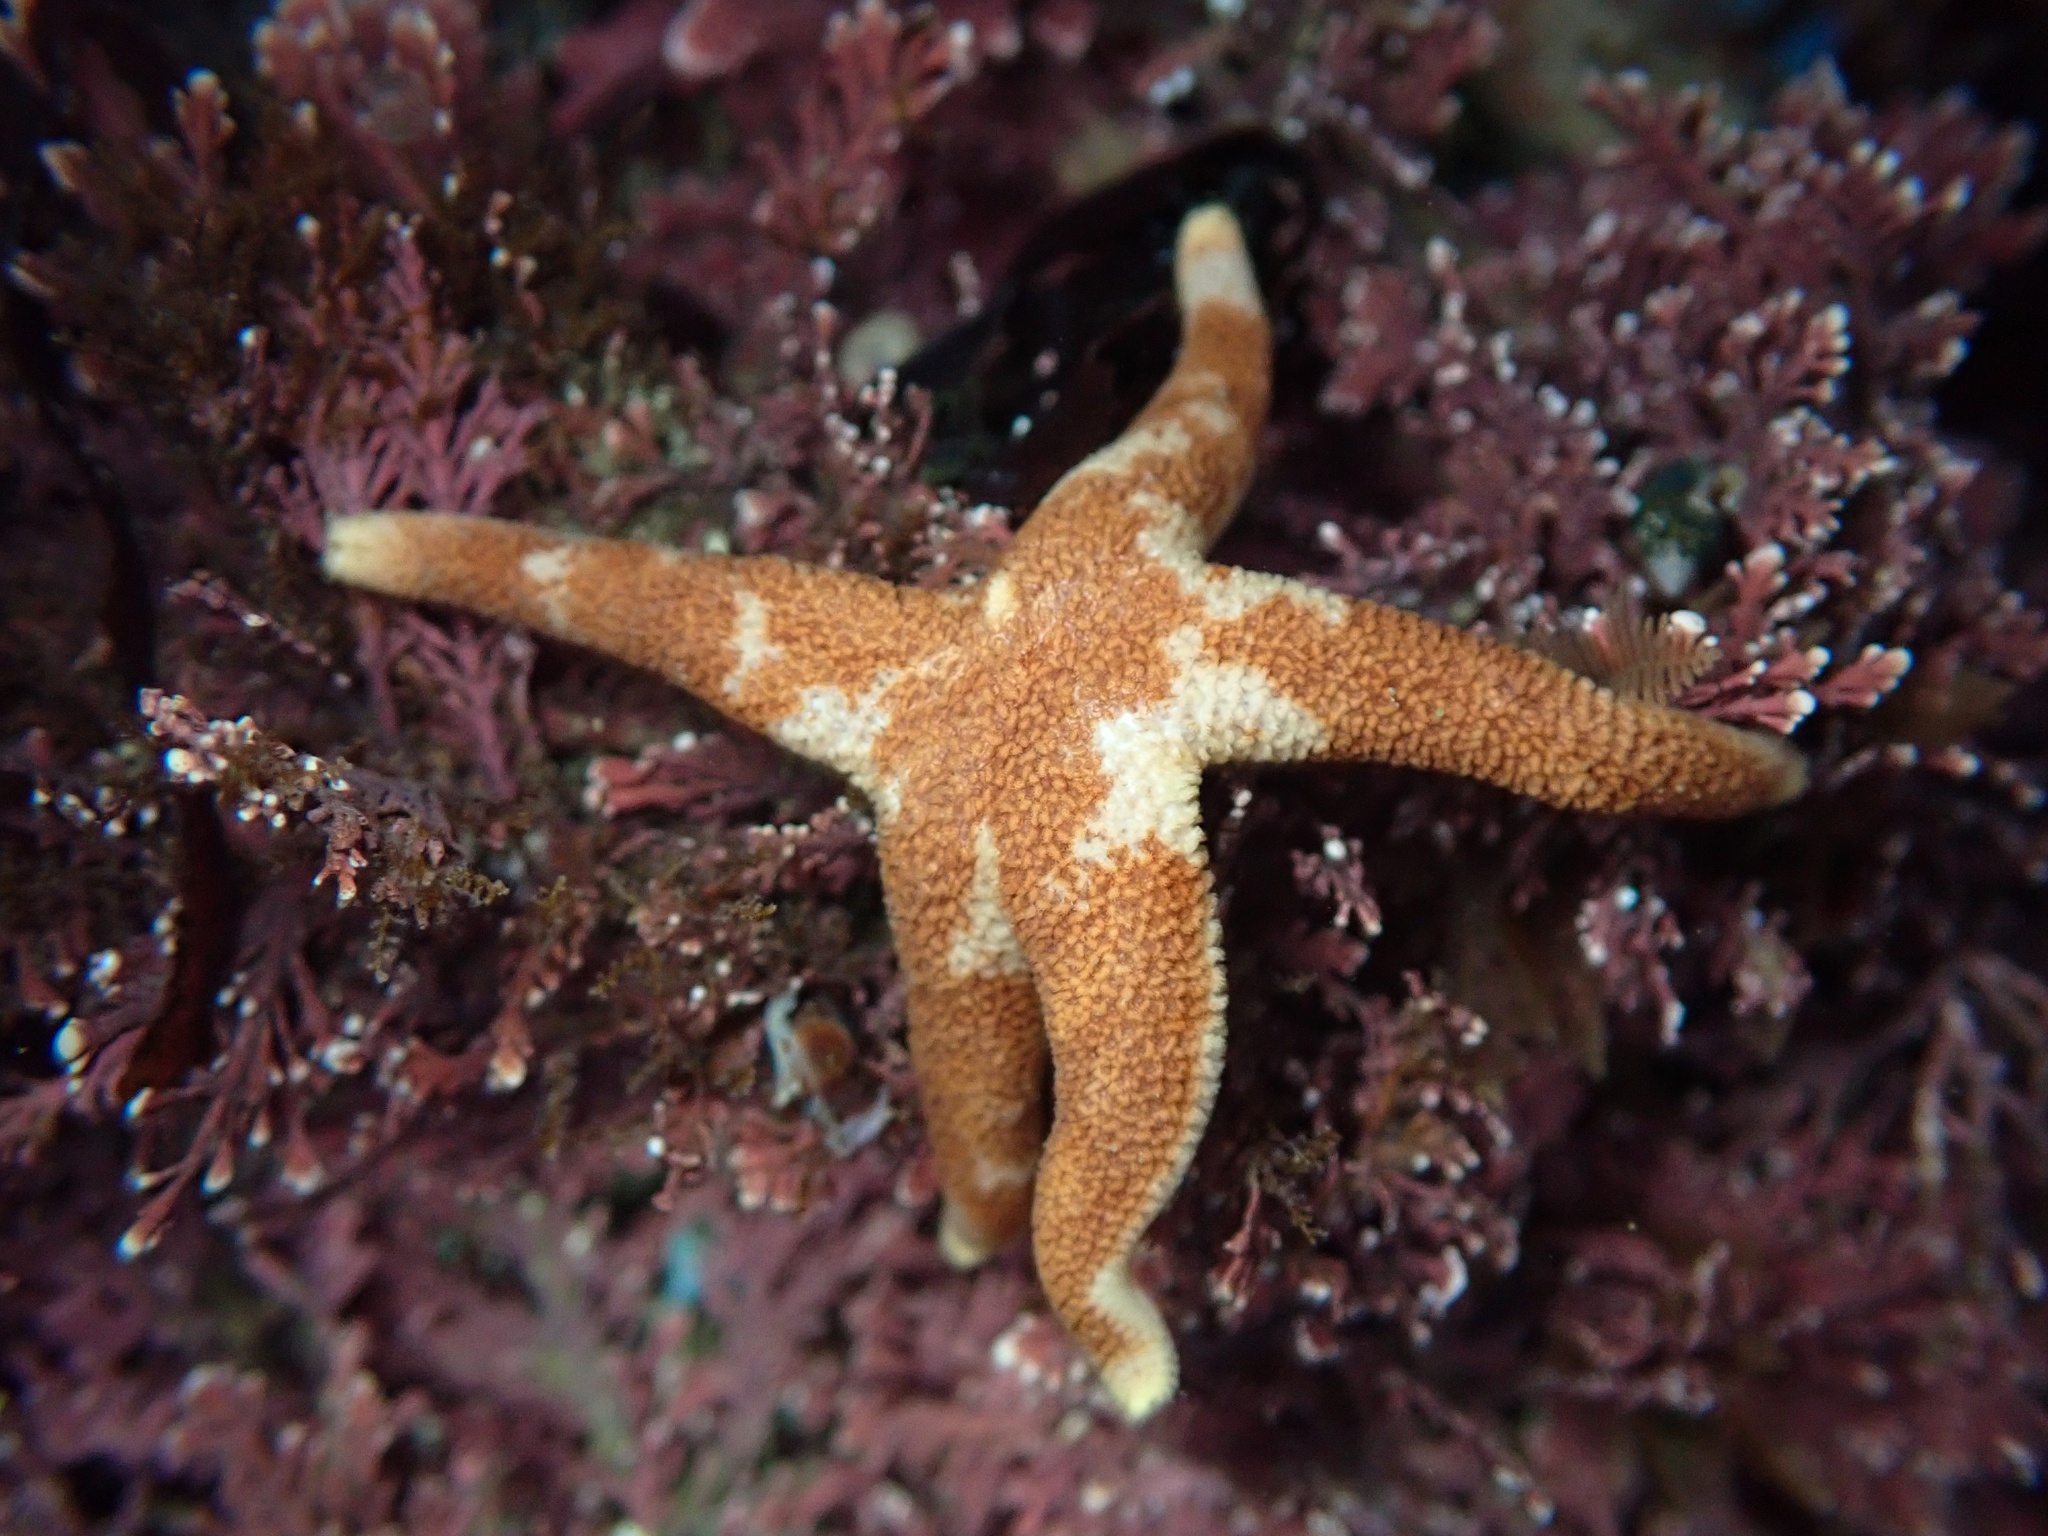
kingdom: Animalia
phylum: Echinodermata
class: Asteroidea
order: Spinulosida
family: Echinasteridae
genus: Henricia
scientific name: Henricia pumila
